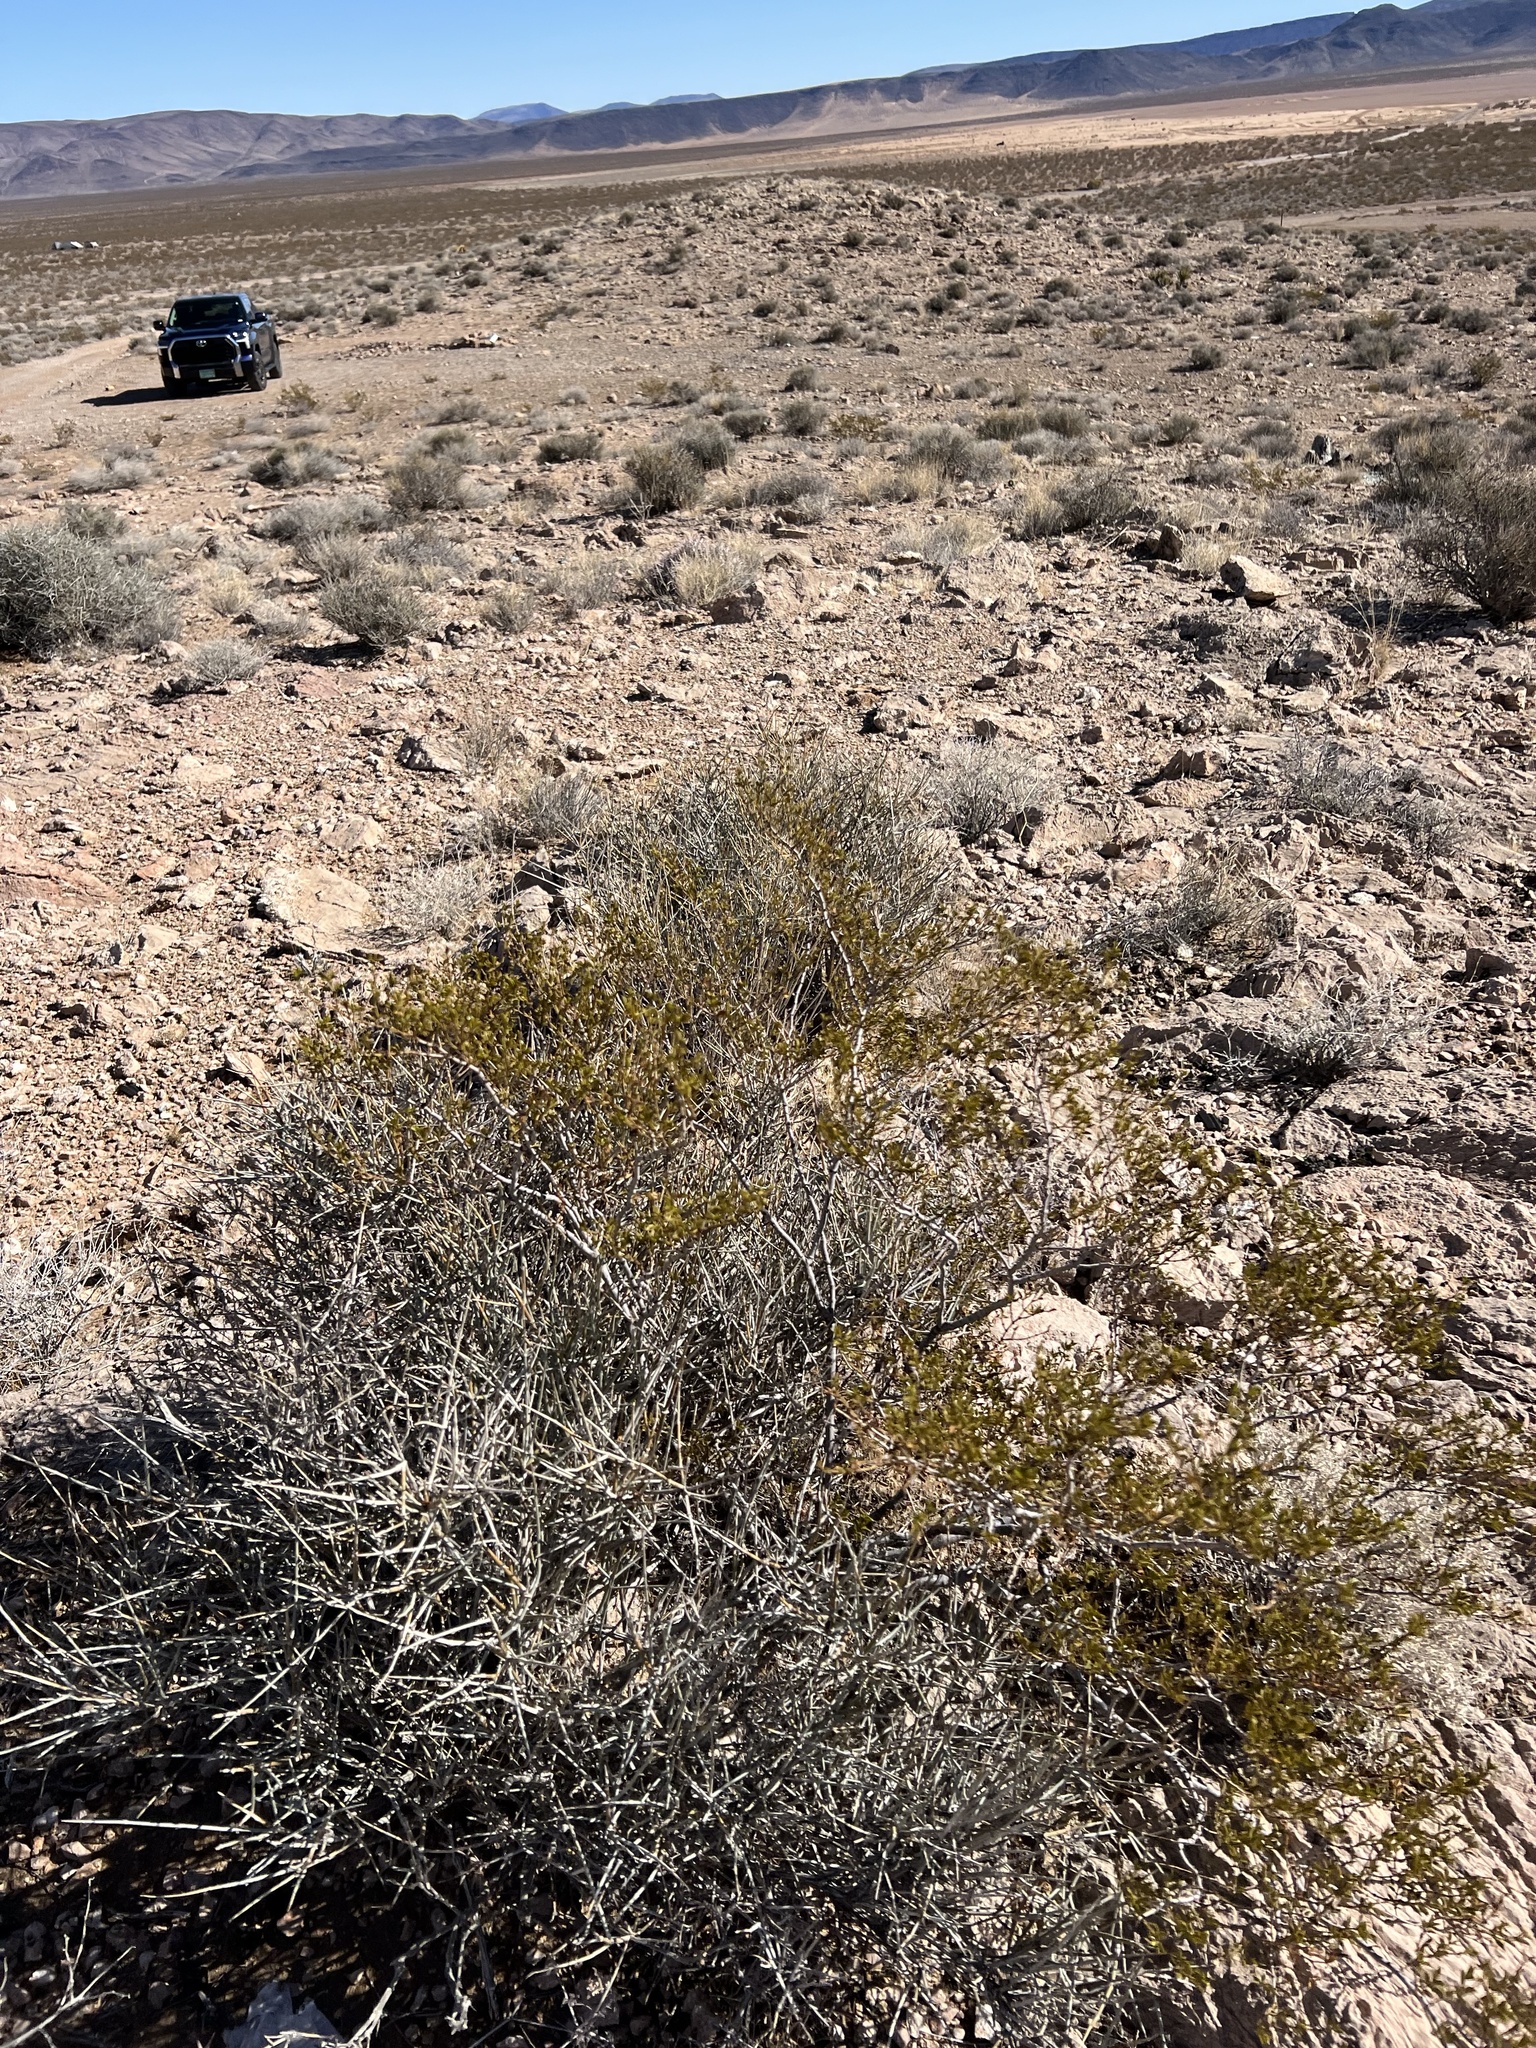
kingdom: Plantae
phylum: Tracheophyta
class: Magnoliopsida
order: Zygophyllales
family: Zygophyllaceae
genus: Larrea
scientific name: Larrea tridentata
